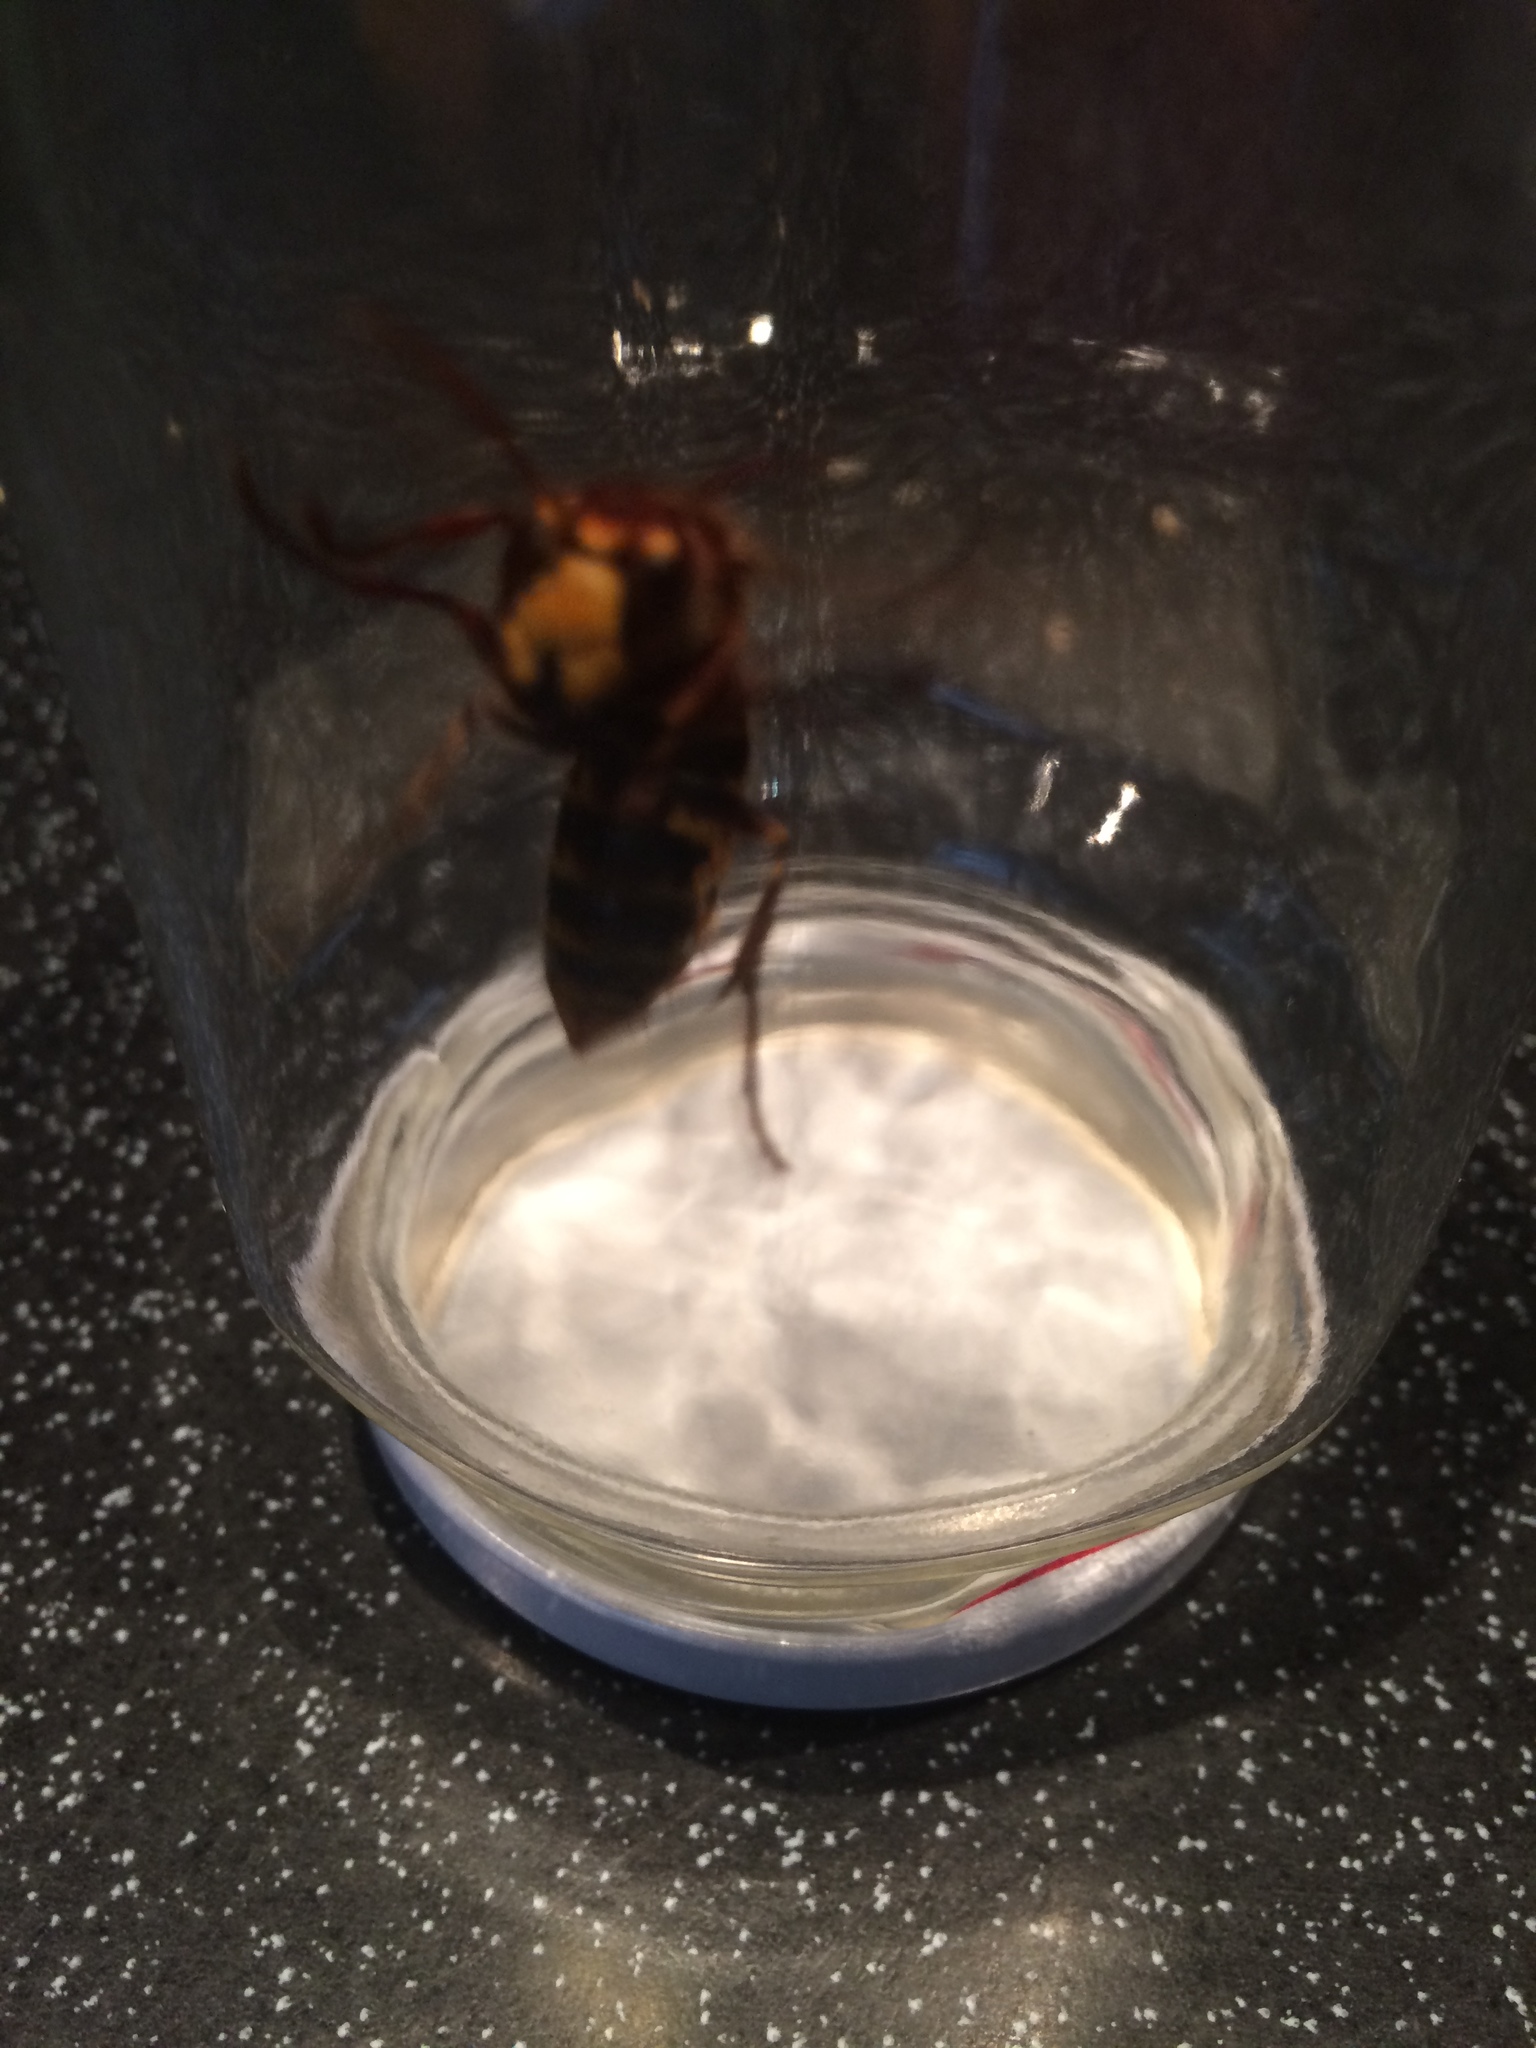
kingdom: Animalia
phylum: Arthropoda
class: Insecta
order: Hymenoptera
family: Vespidae
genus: Vespa
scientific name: Vespa crabro
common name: Hornet
